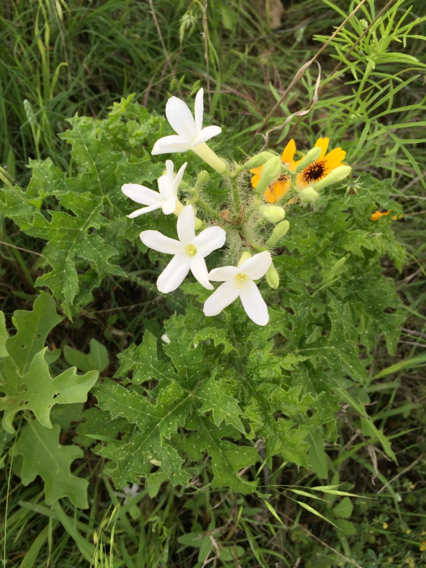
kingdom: Plantae
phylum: Tracheophyta
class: Magnoliopsida
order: Malpighiales
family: Euphorbiaceae
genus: Cnidoscolus
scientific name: Cnidoscolus texanus
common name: Texas bull-nettle
